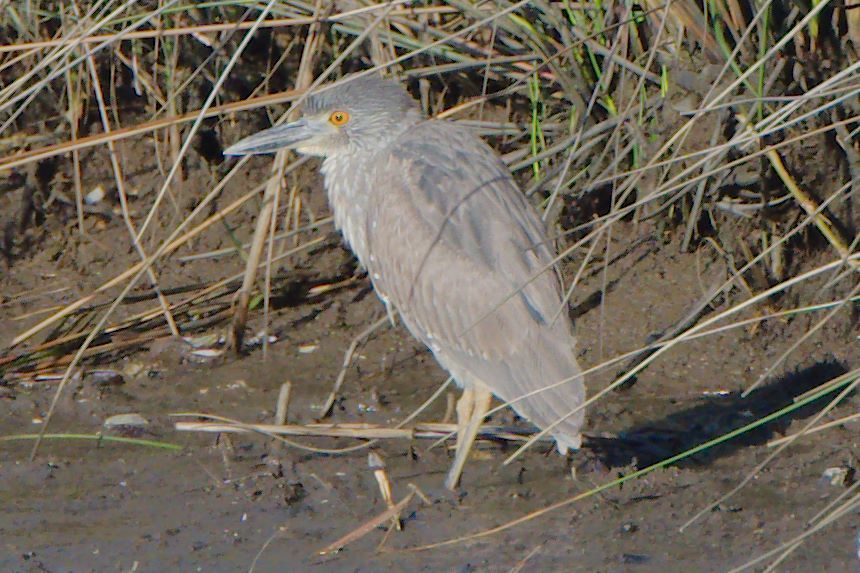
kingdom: Animalia
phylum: Chordata
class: Aves
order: Pelecaniformes
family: Ardeidae
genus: Nycticorax
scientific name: Nycticorax nycticorax
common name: Black-crowned night heron
